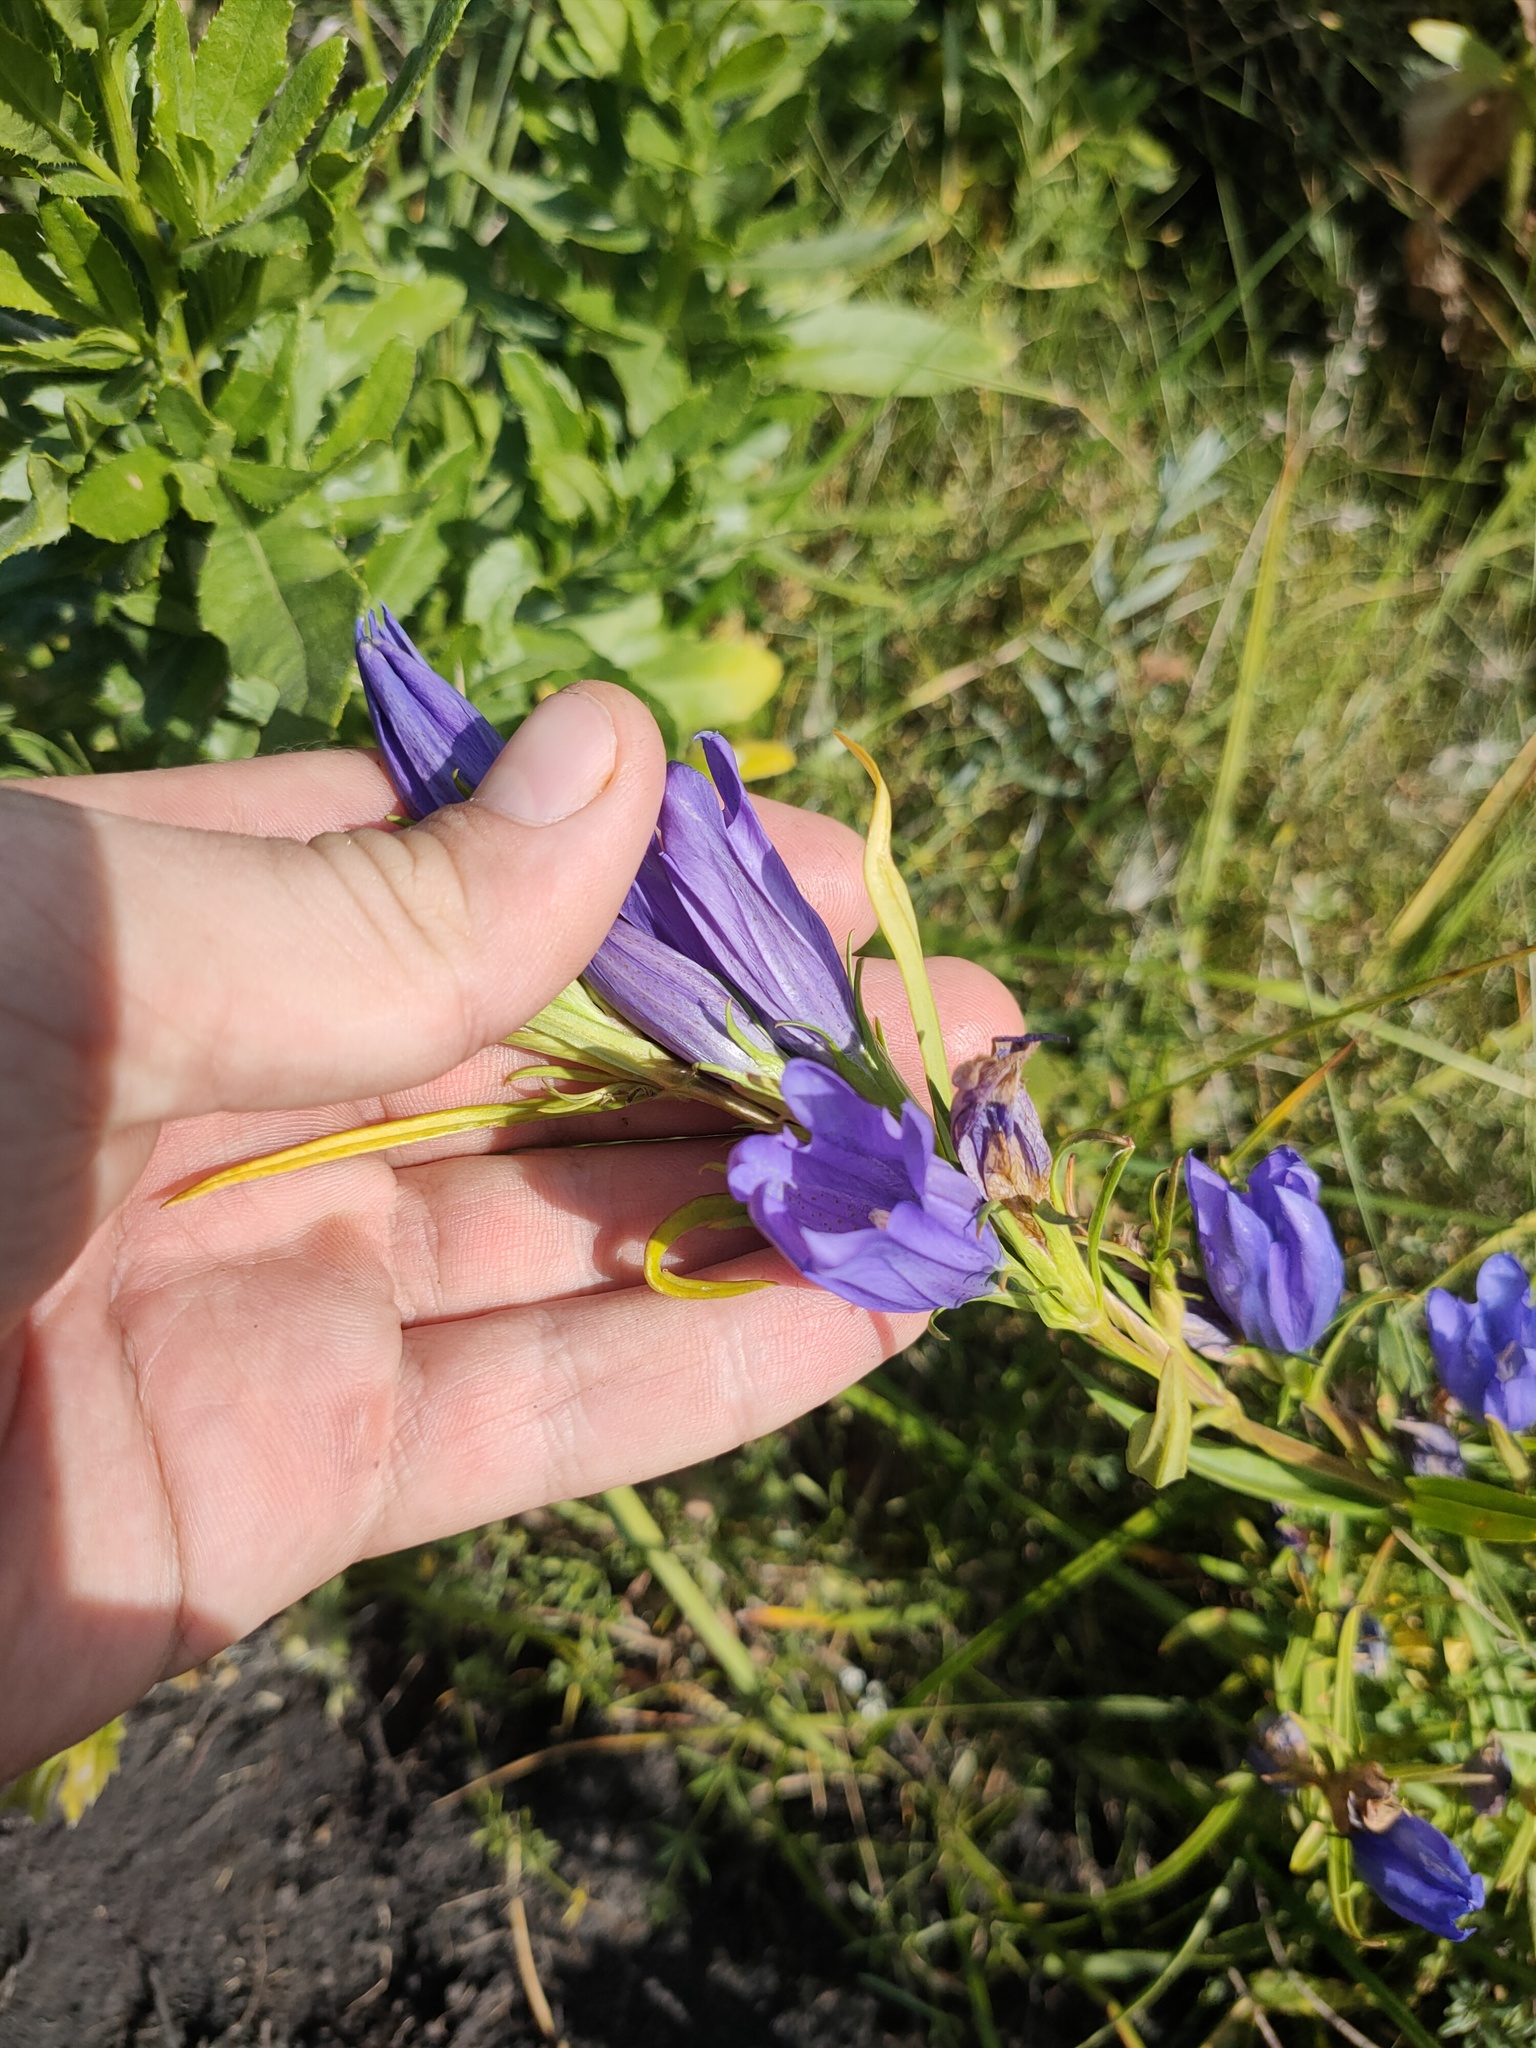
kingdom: Plantae
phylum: Tracheophyta
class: Magnoliopsida
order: Gentianales
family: Gentianaceae
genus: Gentiana
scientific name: Gentiana pneumonanthe
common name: Marsh gentian
